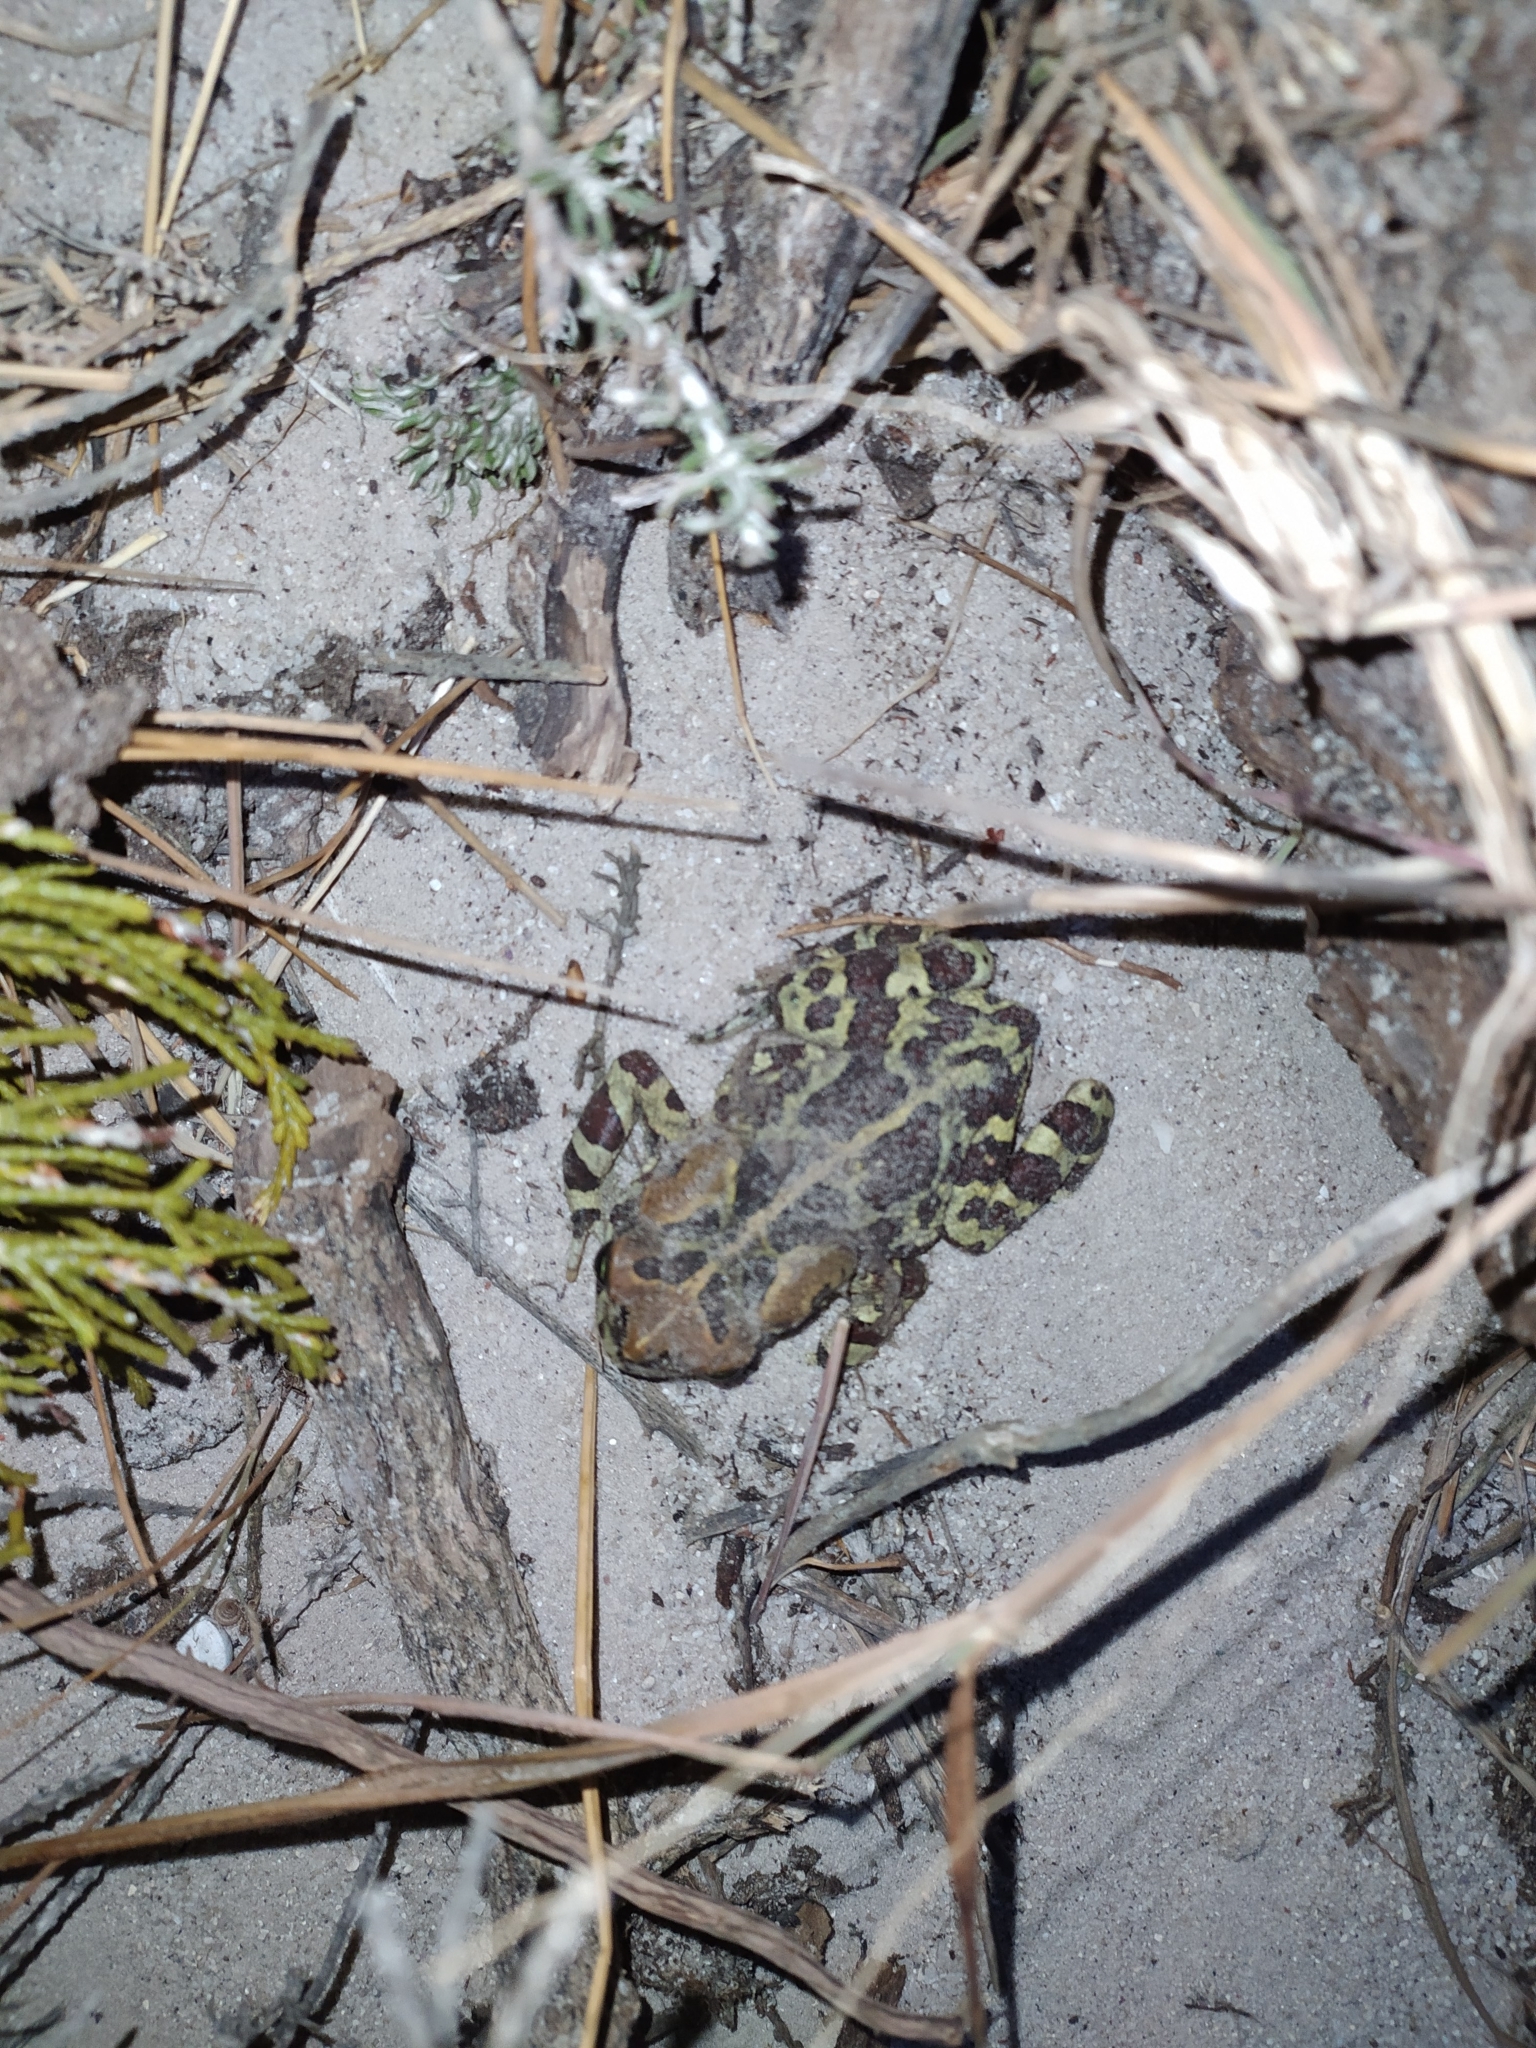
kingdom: Animalia
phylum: Chordata
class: Amphibia
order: Anura
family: Bufonidae
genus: Sclerophrys
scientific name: Sclerophrys pantherina
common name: Panther toad
